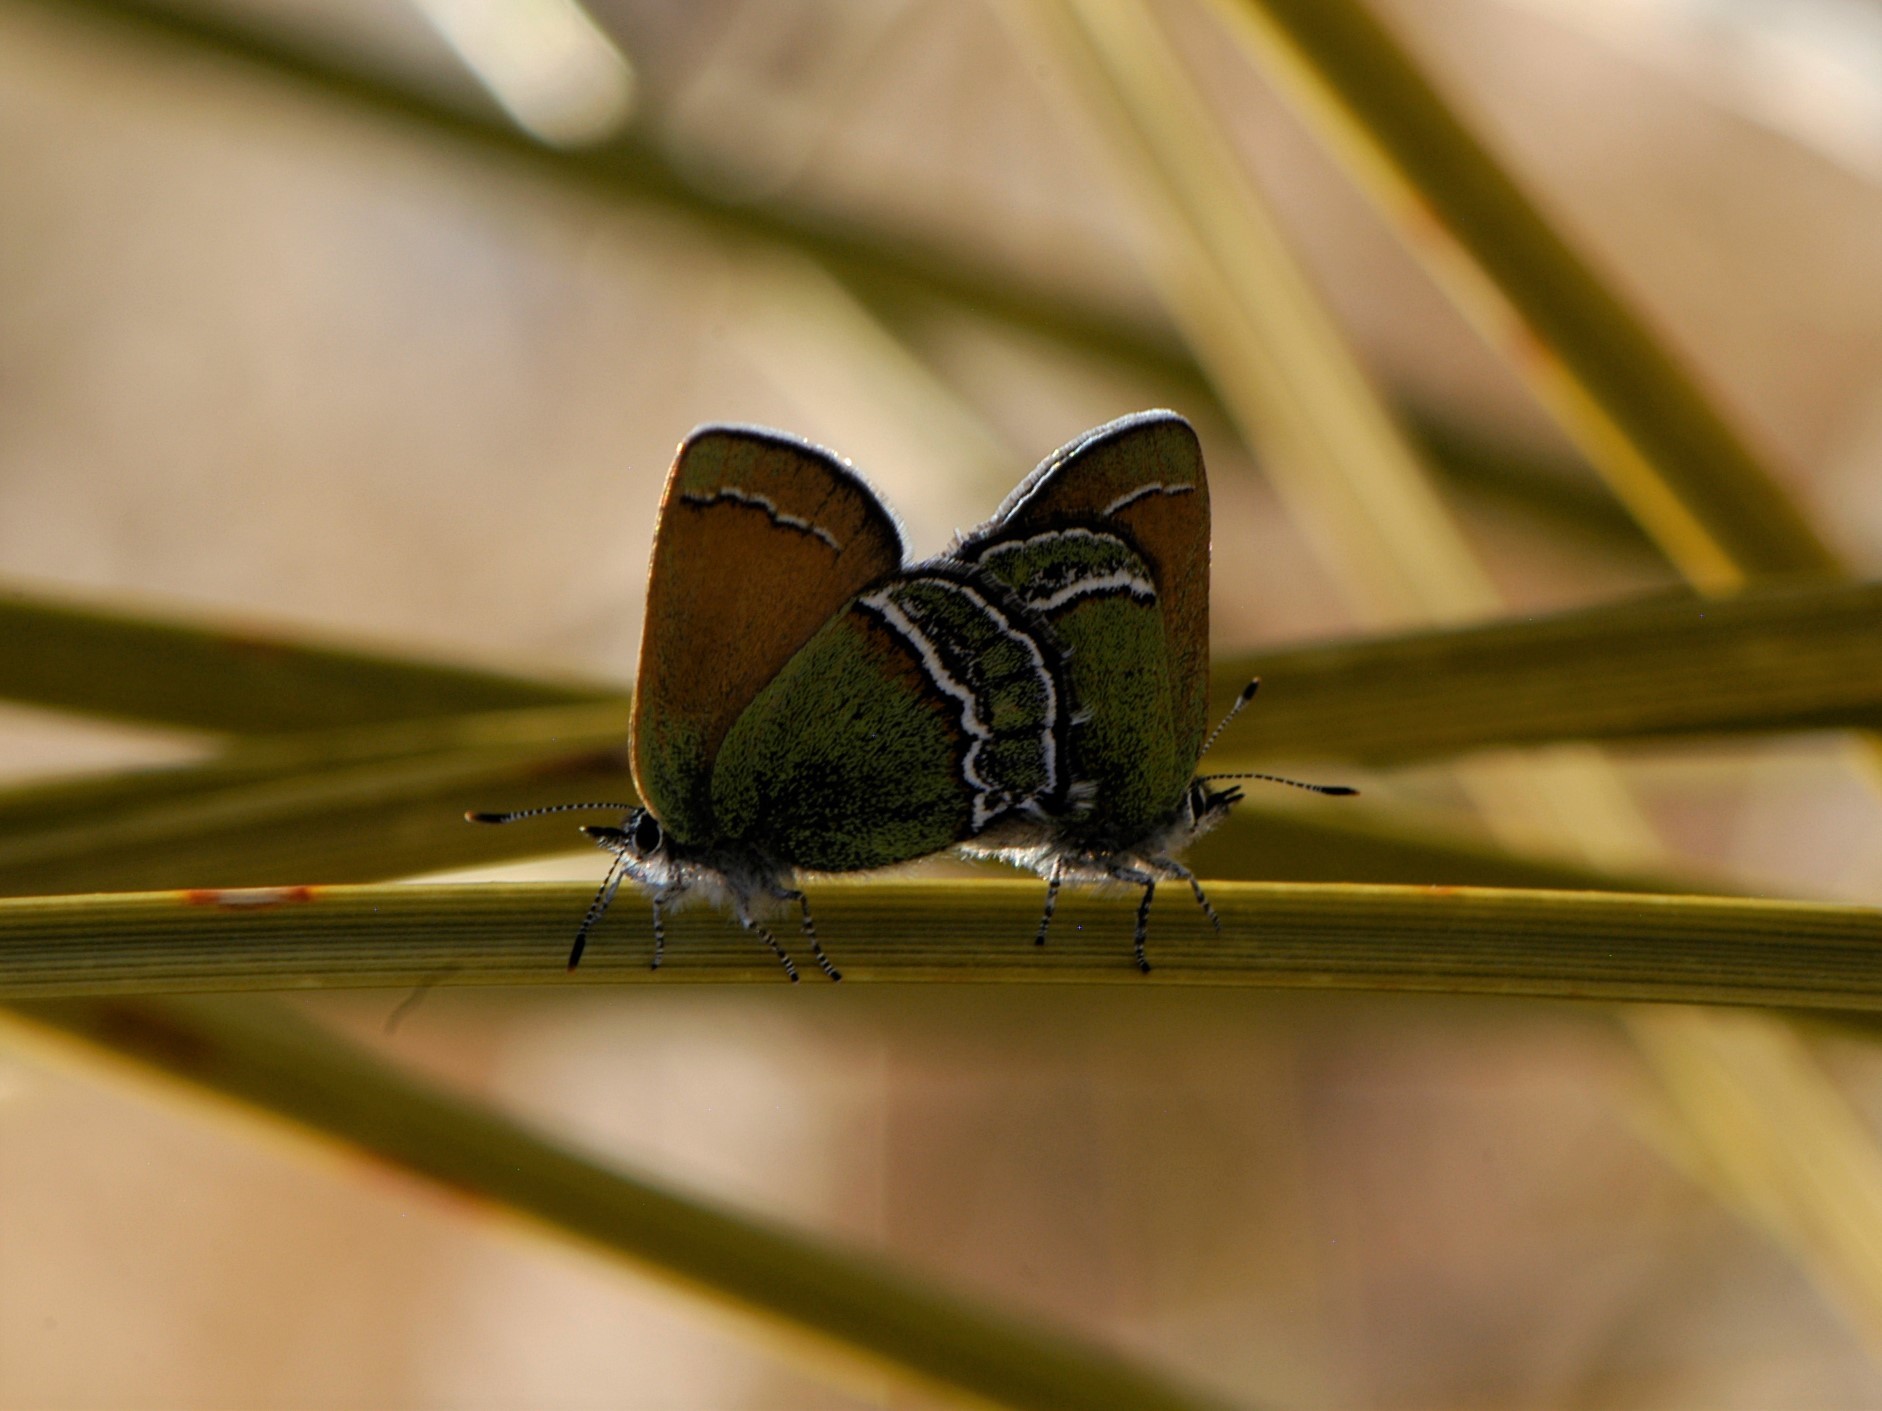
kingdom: Animalia
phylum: Arthropoda
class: Insecta
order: Lepidoptera
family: Lycaenidae
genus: Sandia
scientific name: Sandia mcfarlandi
